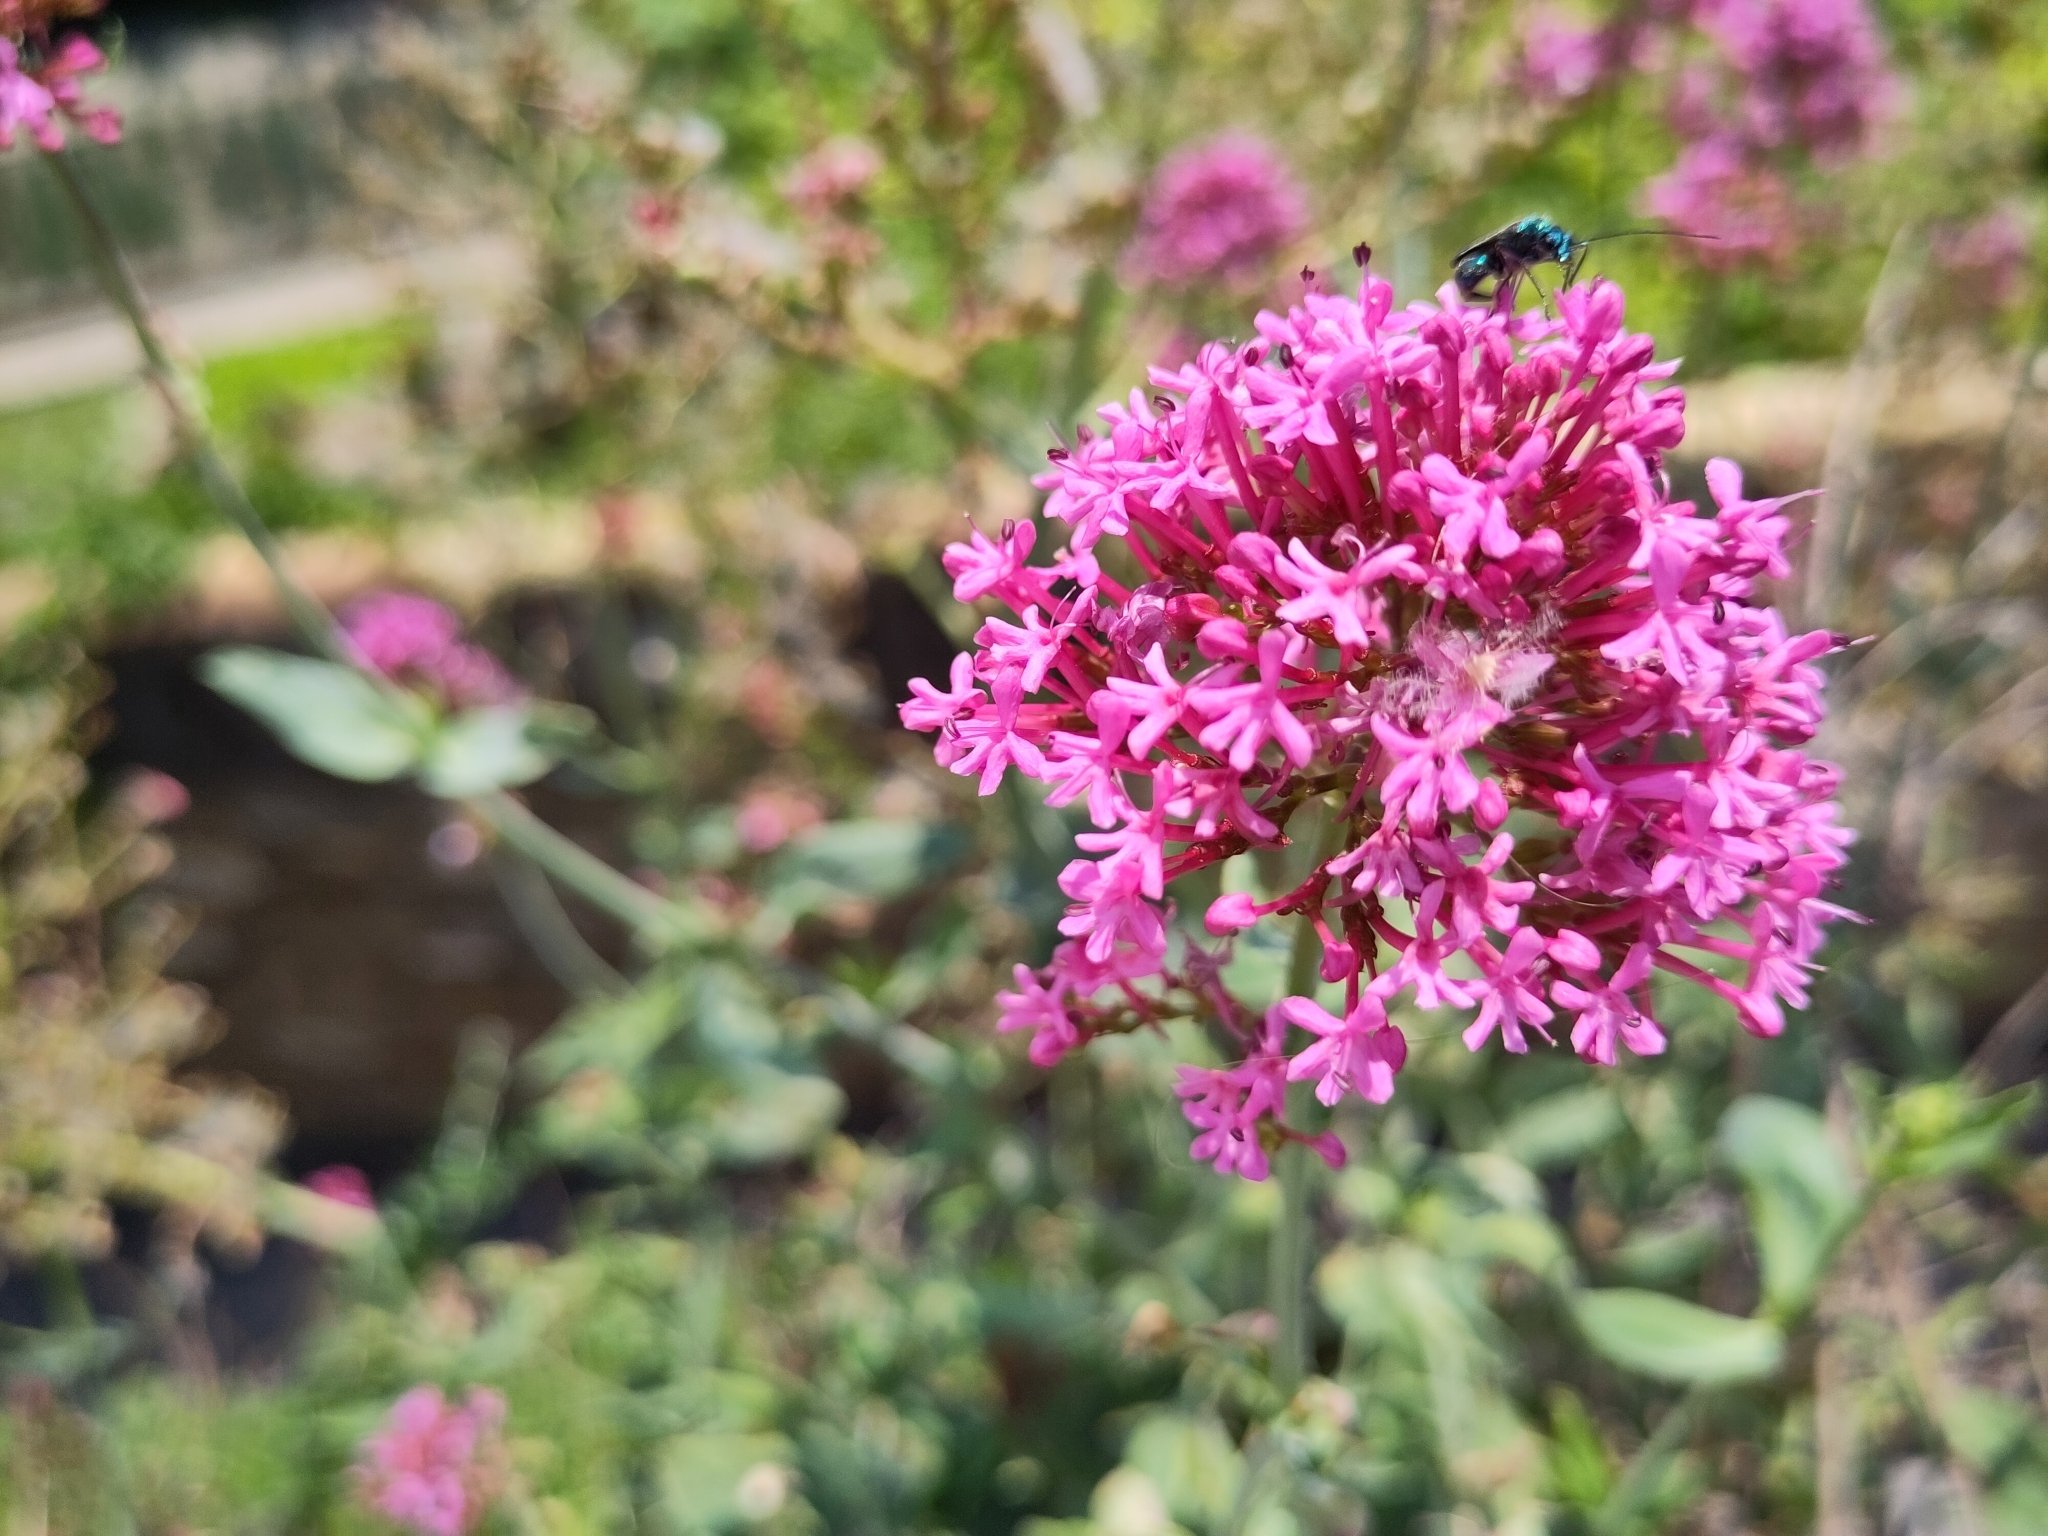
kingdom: Plantae
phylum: Tracheophyta
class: Magnoliopsida
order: Dipsacales
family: Caprifoliaceae
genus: Centranthus
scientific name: Centranthus ruber
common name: Red valerian
